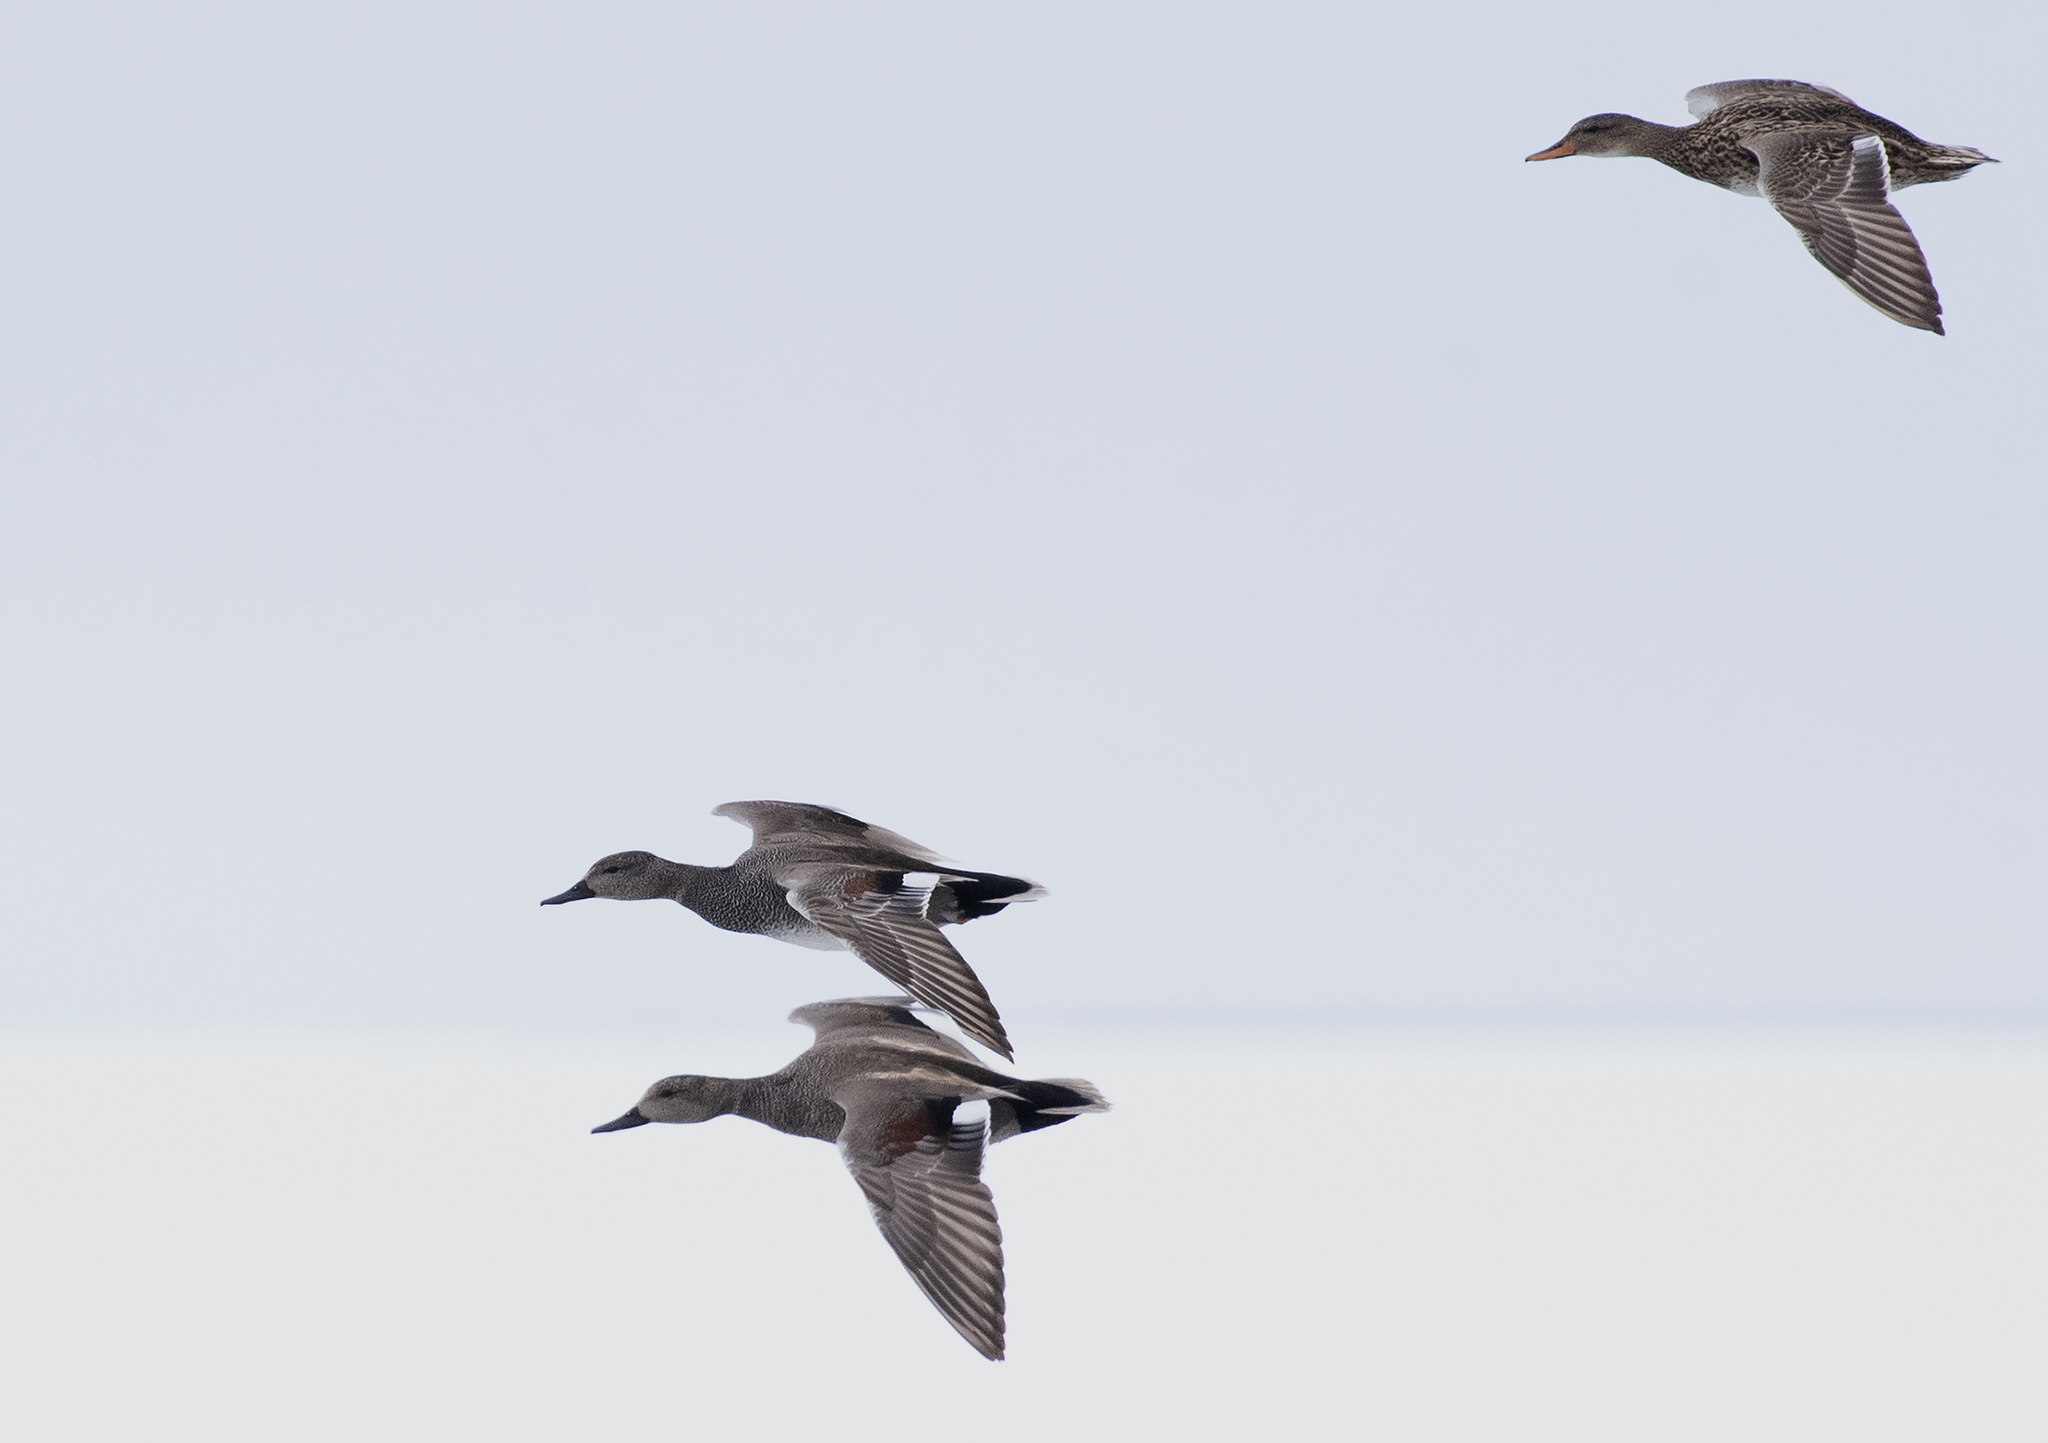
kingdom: Animalia
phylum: Chordata
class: Aves
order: Anseriformes
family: Anatidae
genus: Mareca
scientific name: Mareca strepera
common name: Gadwall
